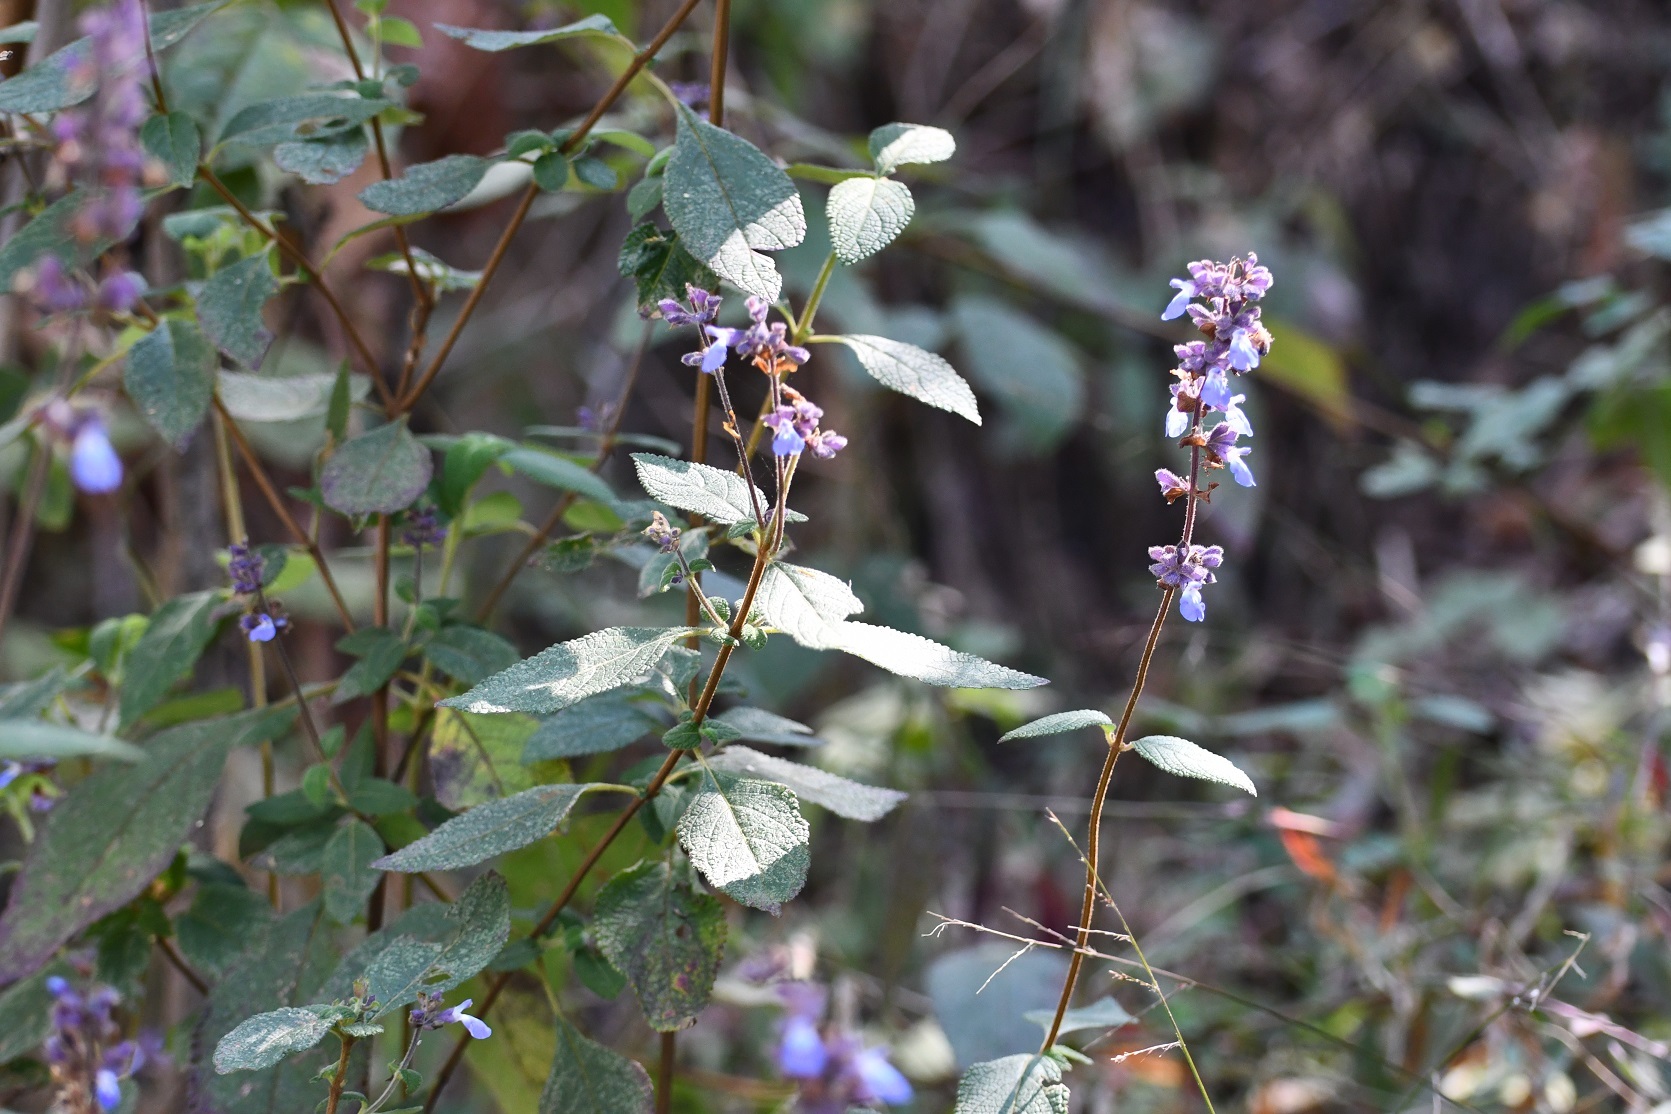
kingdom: Plantae
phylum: Tracheophyta
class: Magnoliopsida
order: Lamiales
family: Lamiaceae
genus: Salvia
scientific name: Salvia mocinoi
